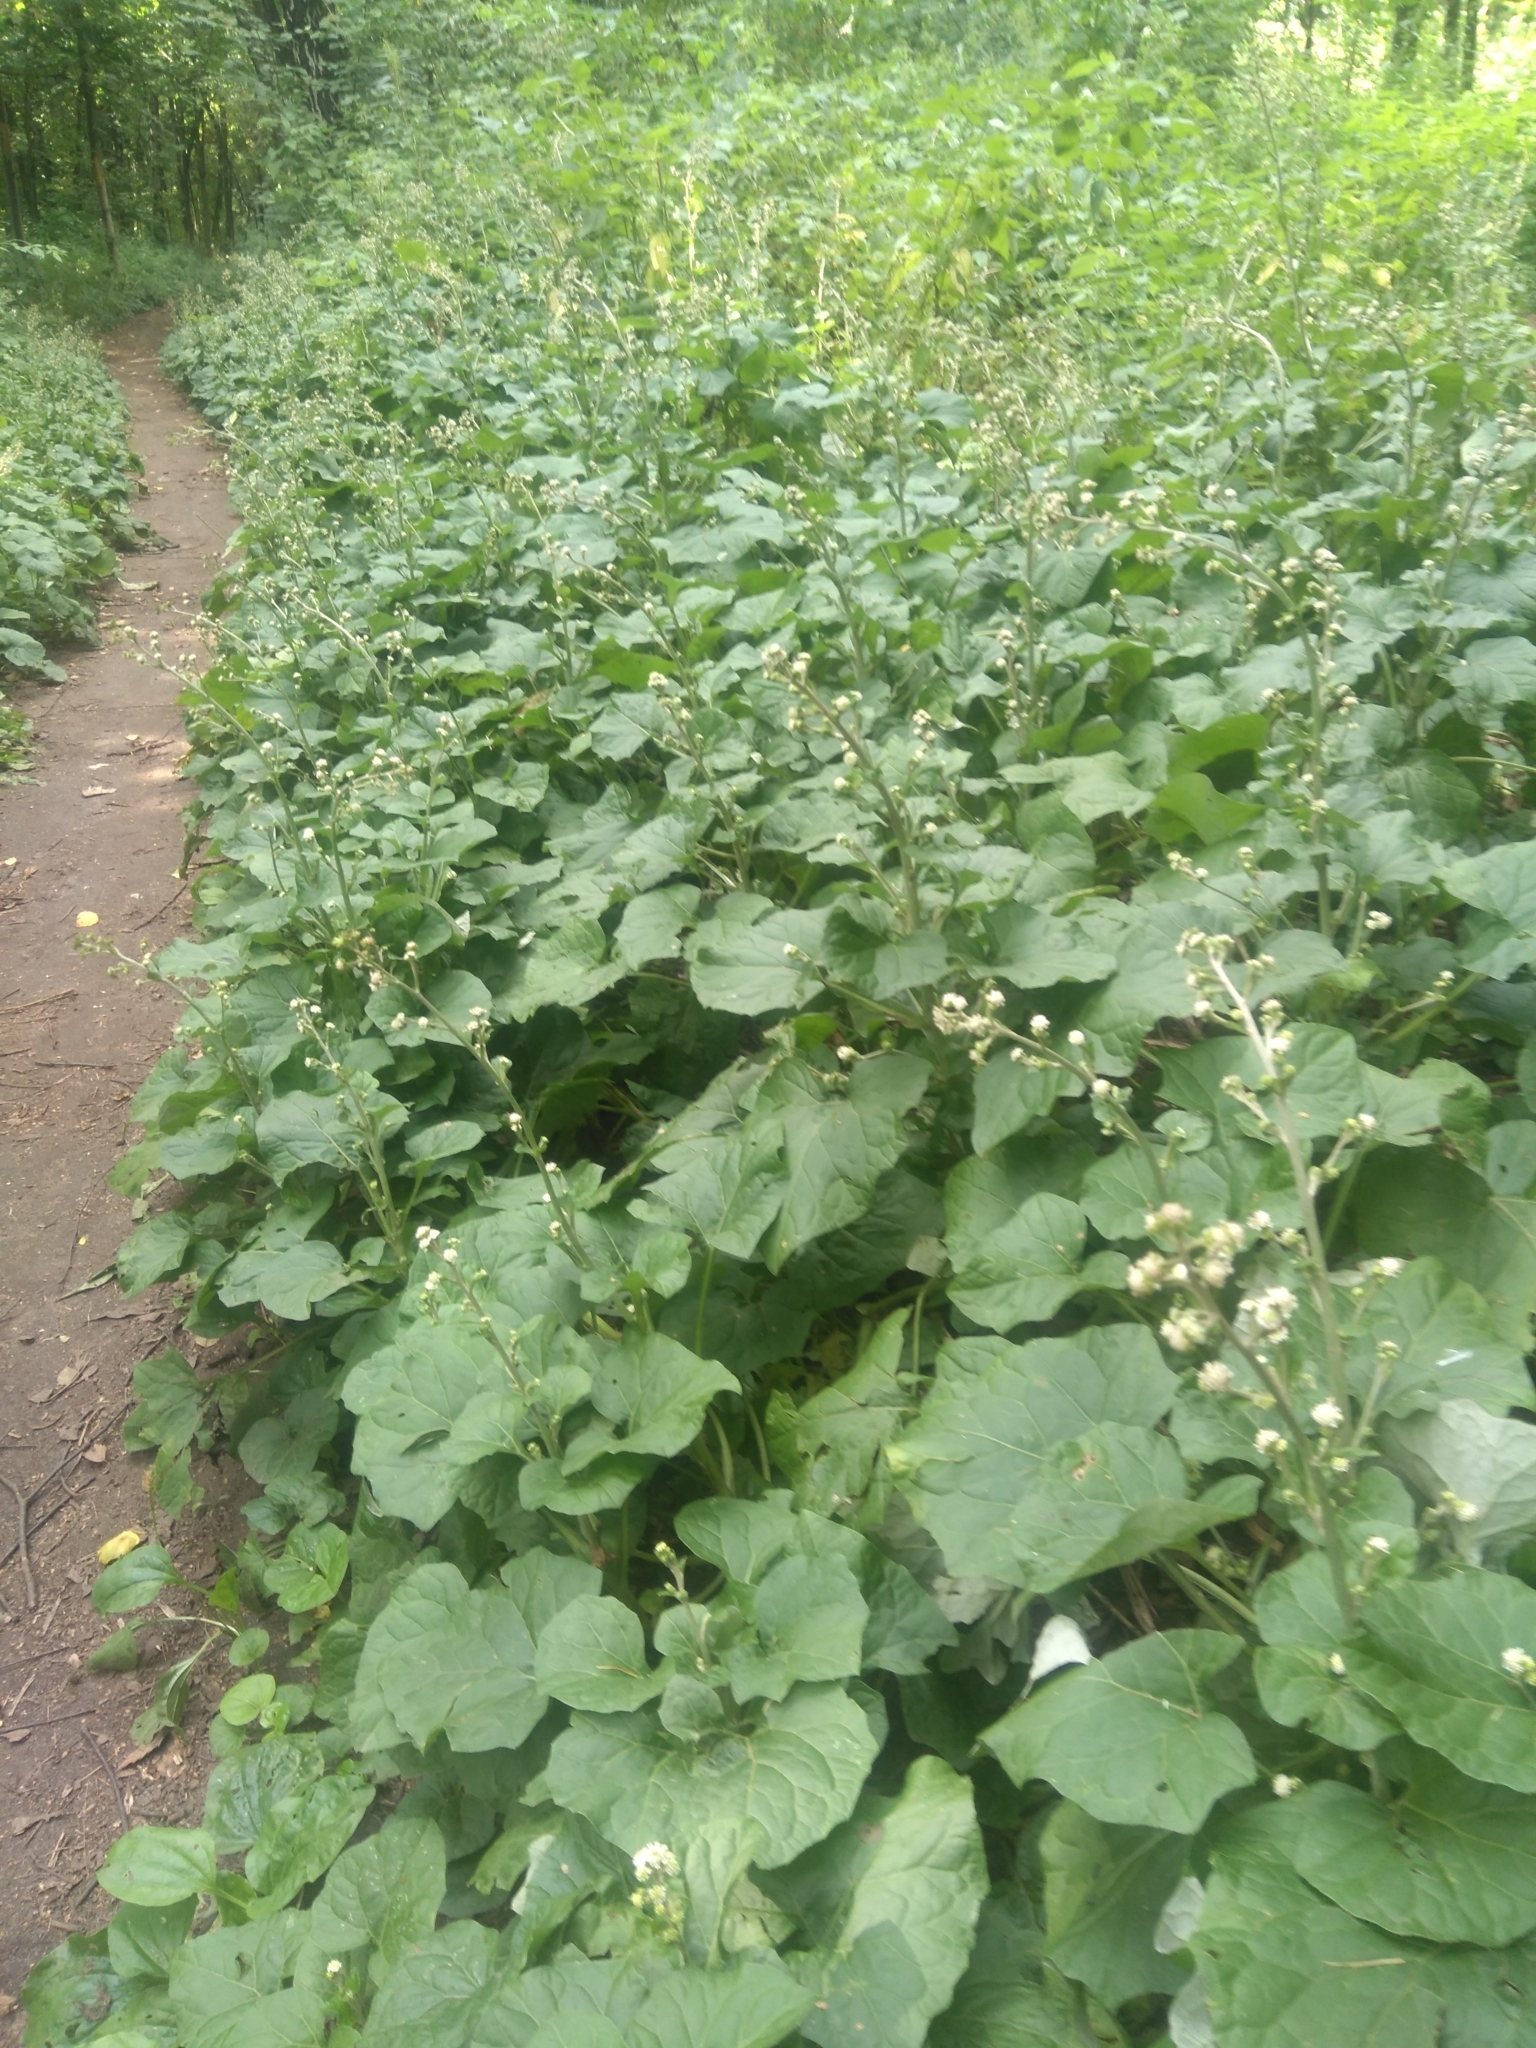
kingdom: Plantae
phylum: Tracheophyta
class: Magnoliopsida
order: Asterales
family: Asteraceae
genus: Adenocaulon
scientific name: Adenocaulon himalaicum
